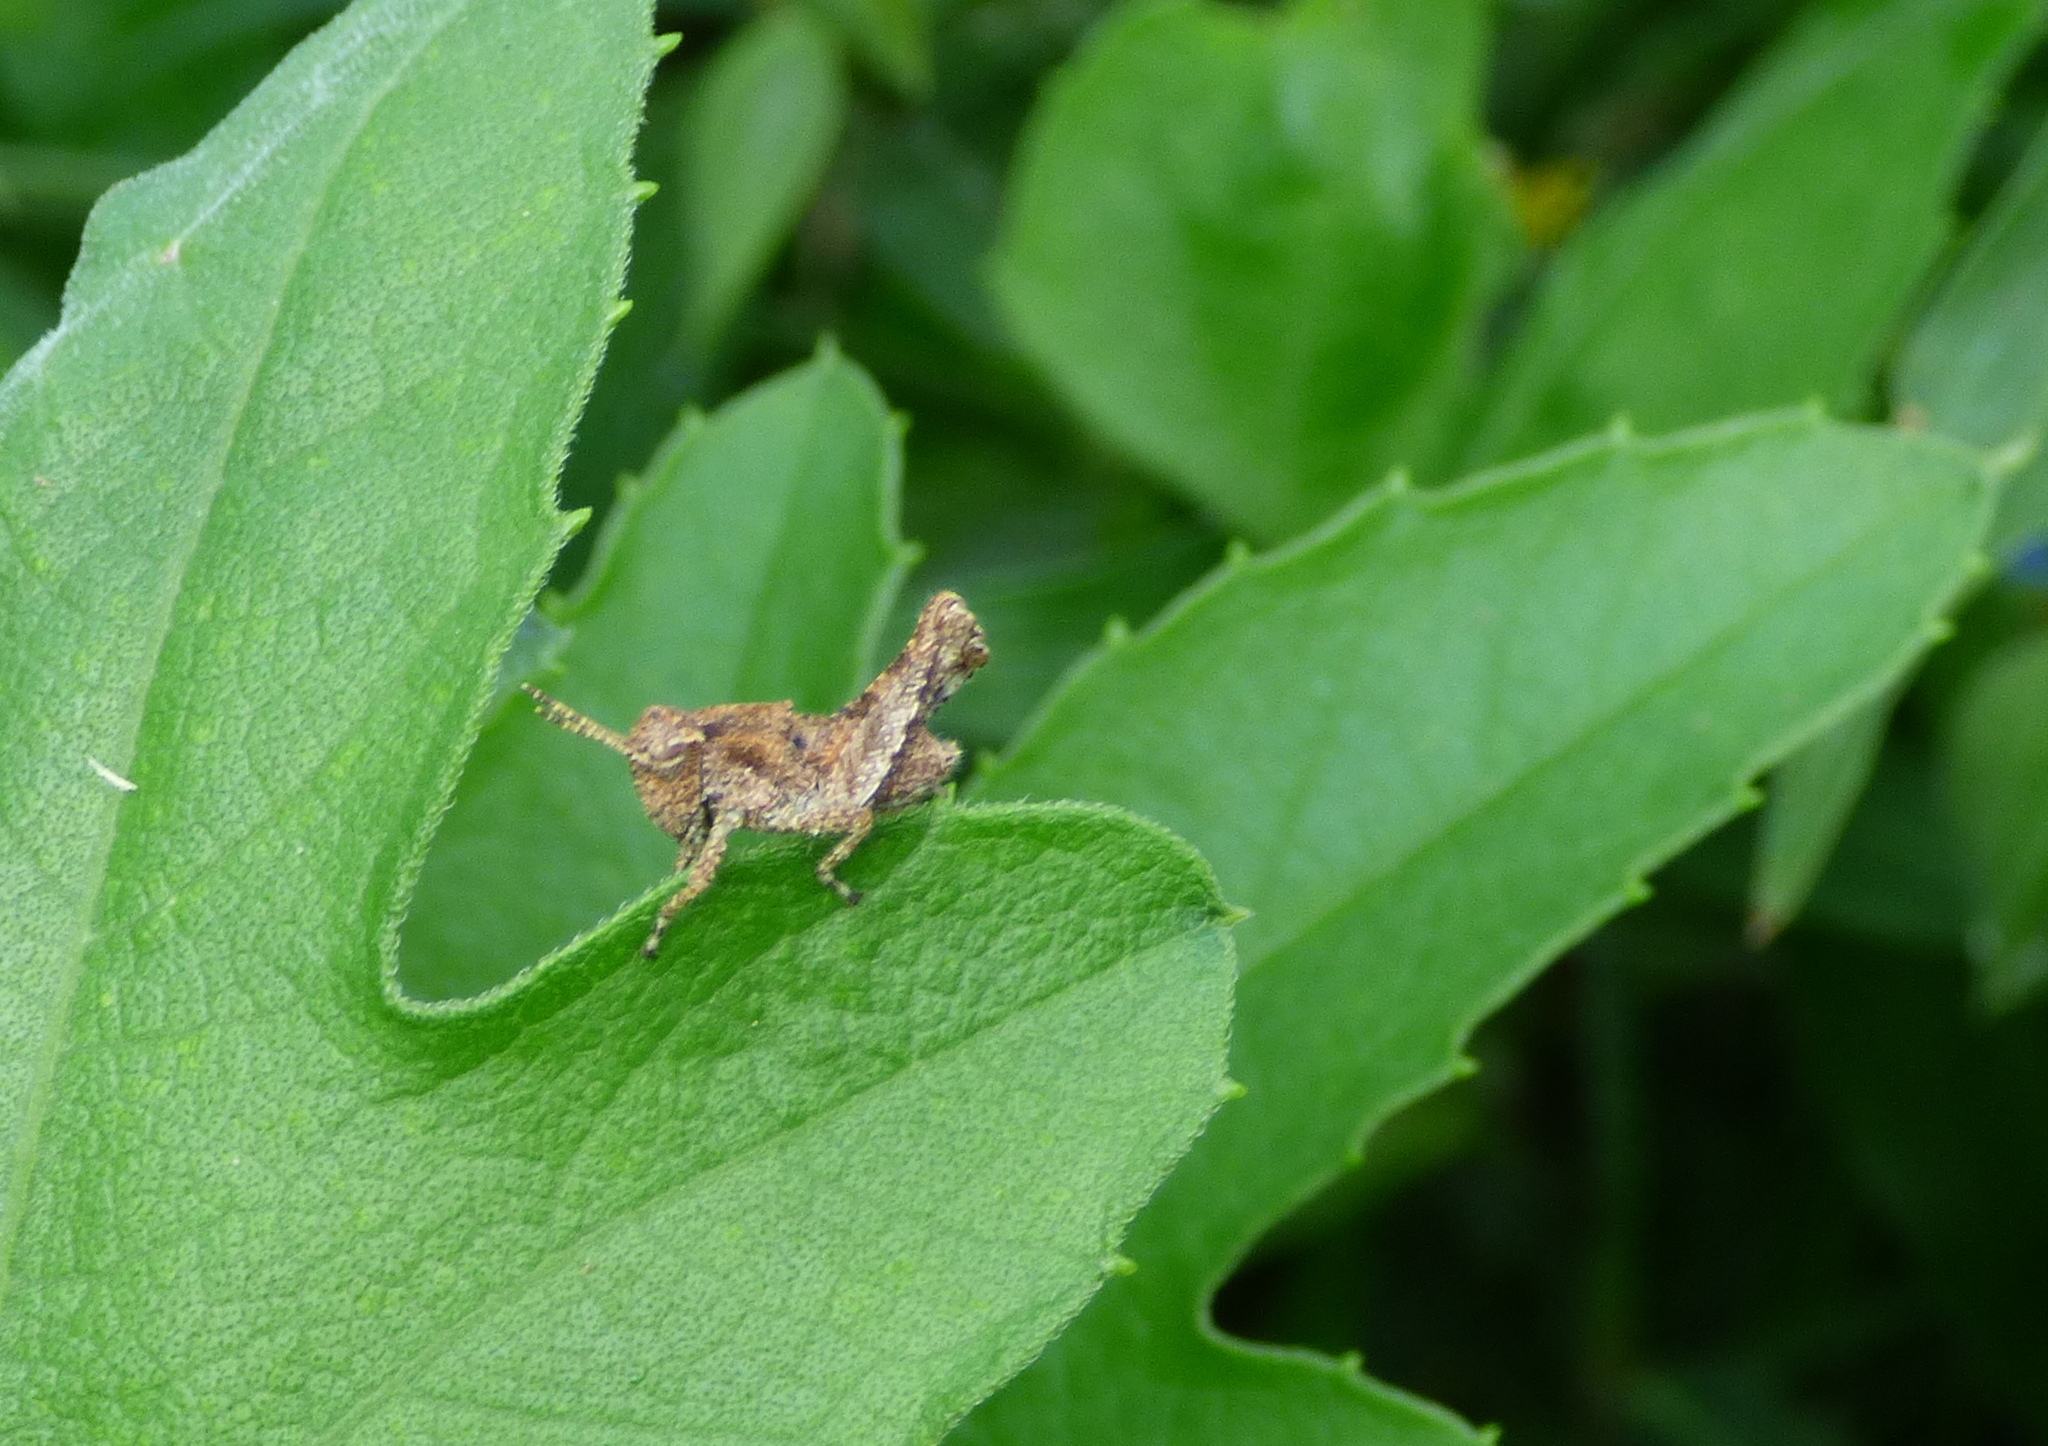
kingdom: Animalia
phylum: Arthropoda
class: Insecta
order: Orthoptera
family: Acrididae
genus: Ronderosia
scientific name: Ronderosia bergii
